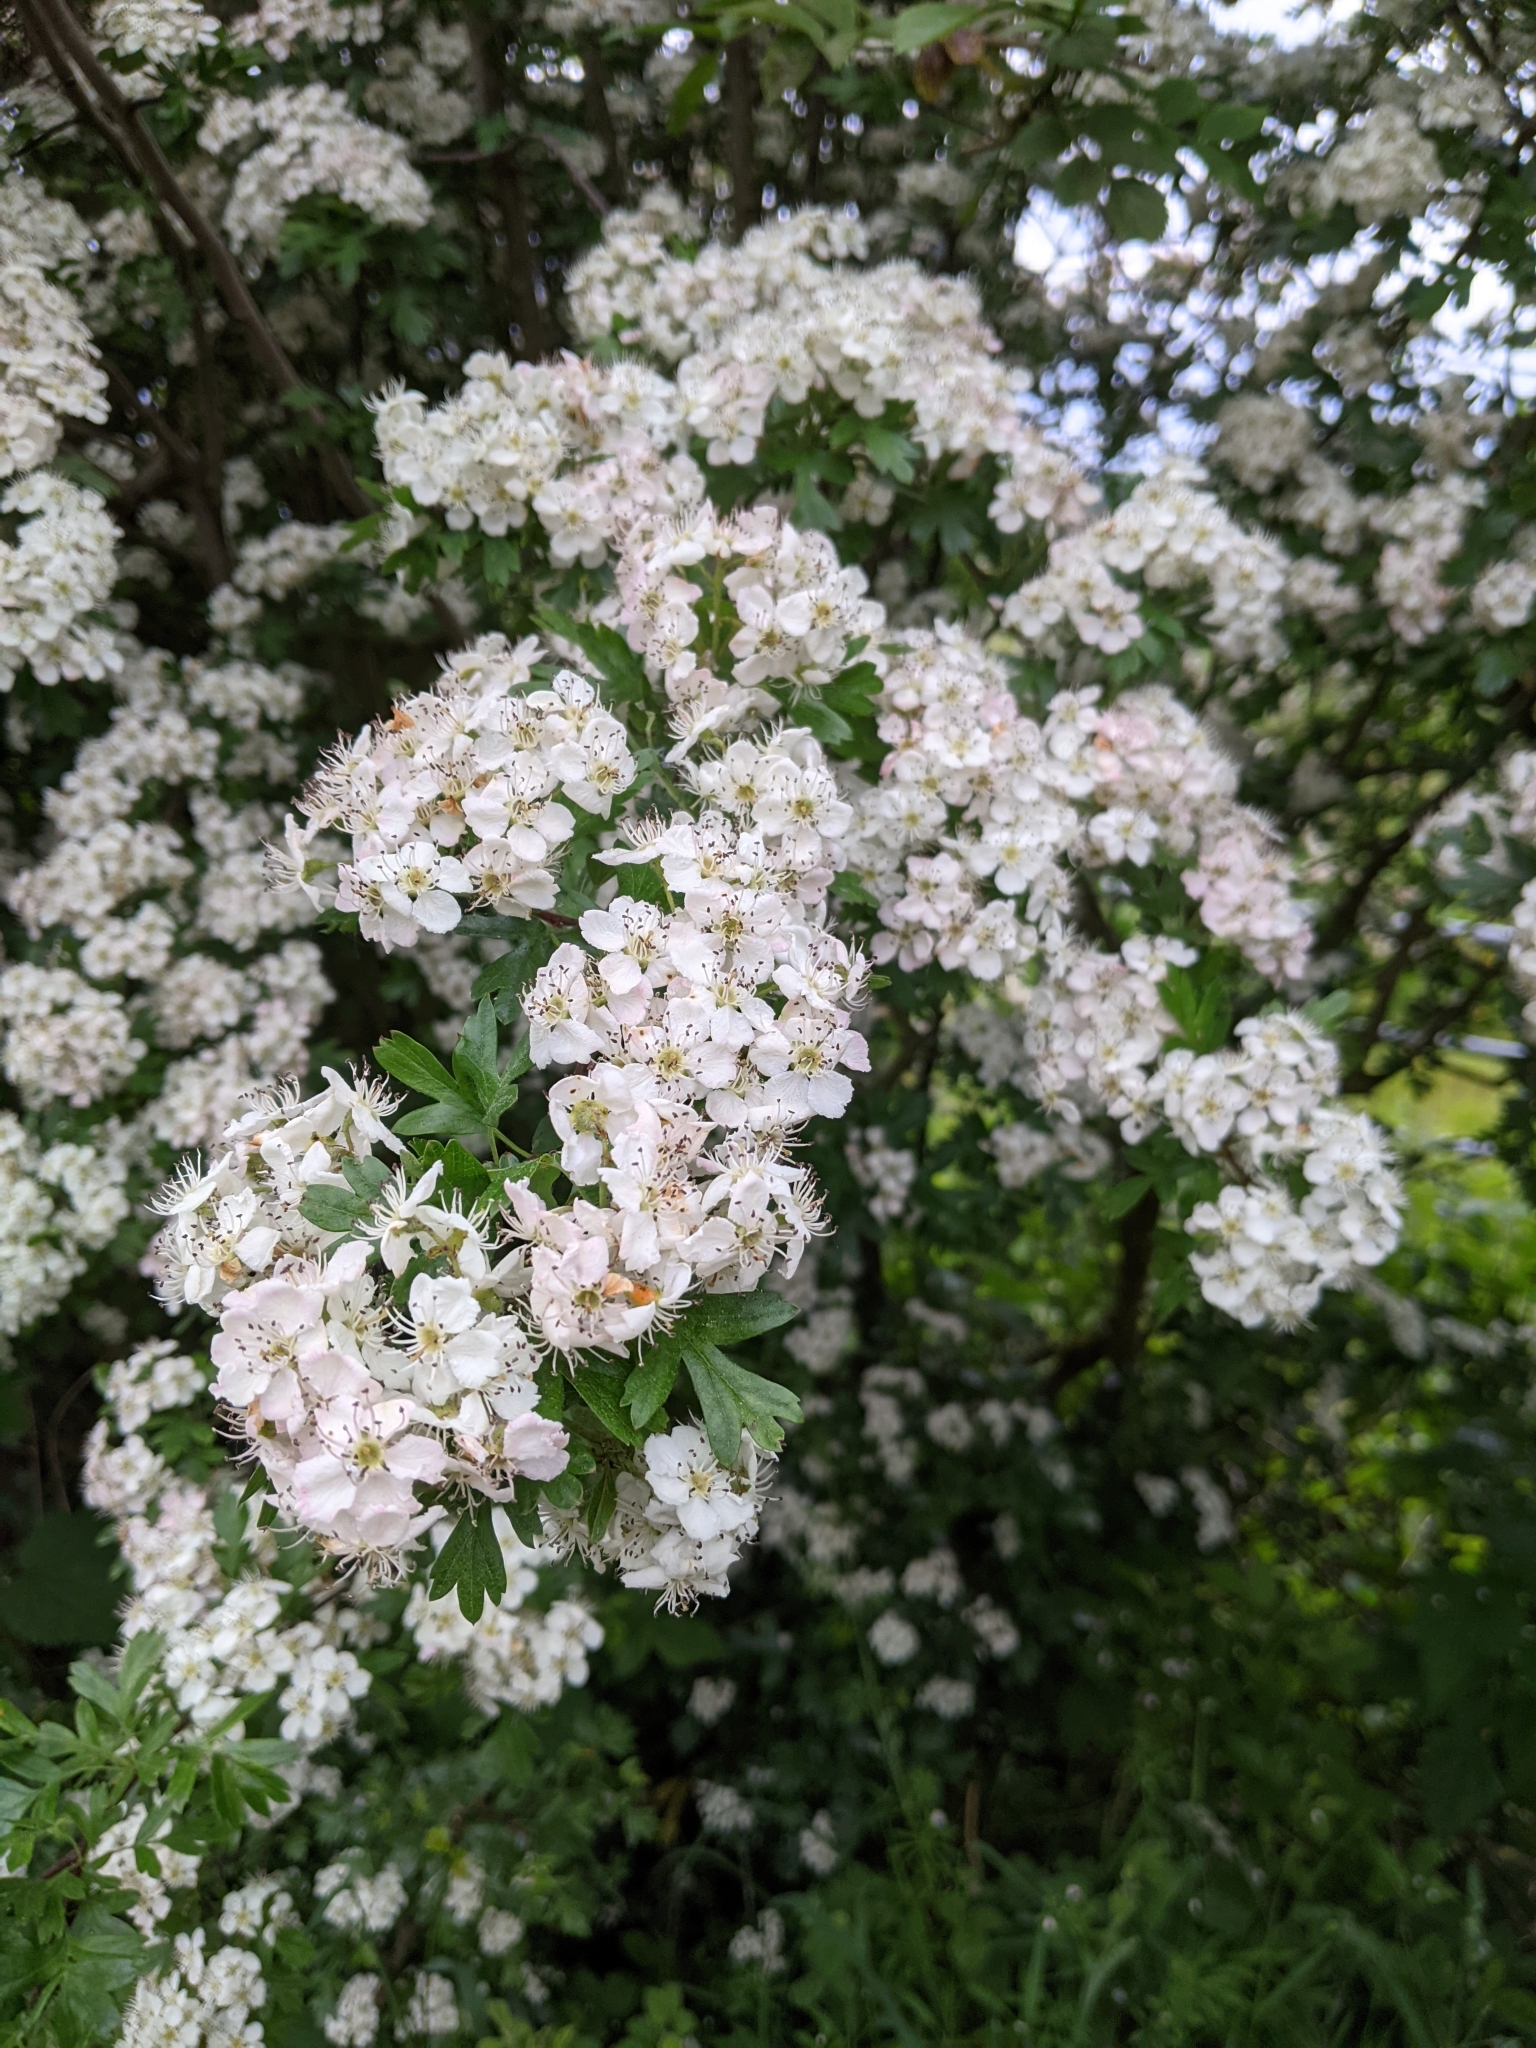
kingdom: Plantae
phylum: Tracheophyta
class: Magnoliopsida
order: Rosales
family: Rosaceae
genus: Crataegus
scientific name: Crataegus monogyna
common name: Hawthorn
